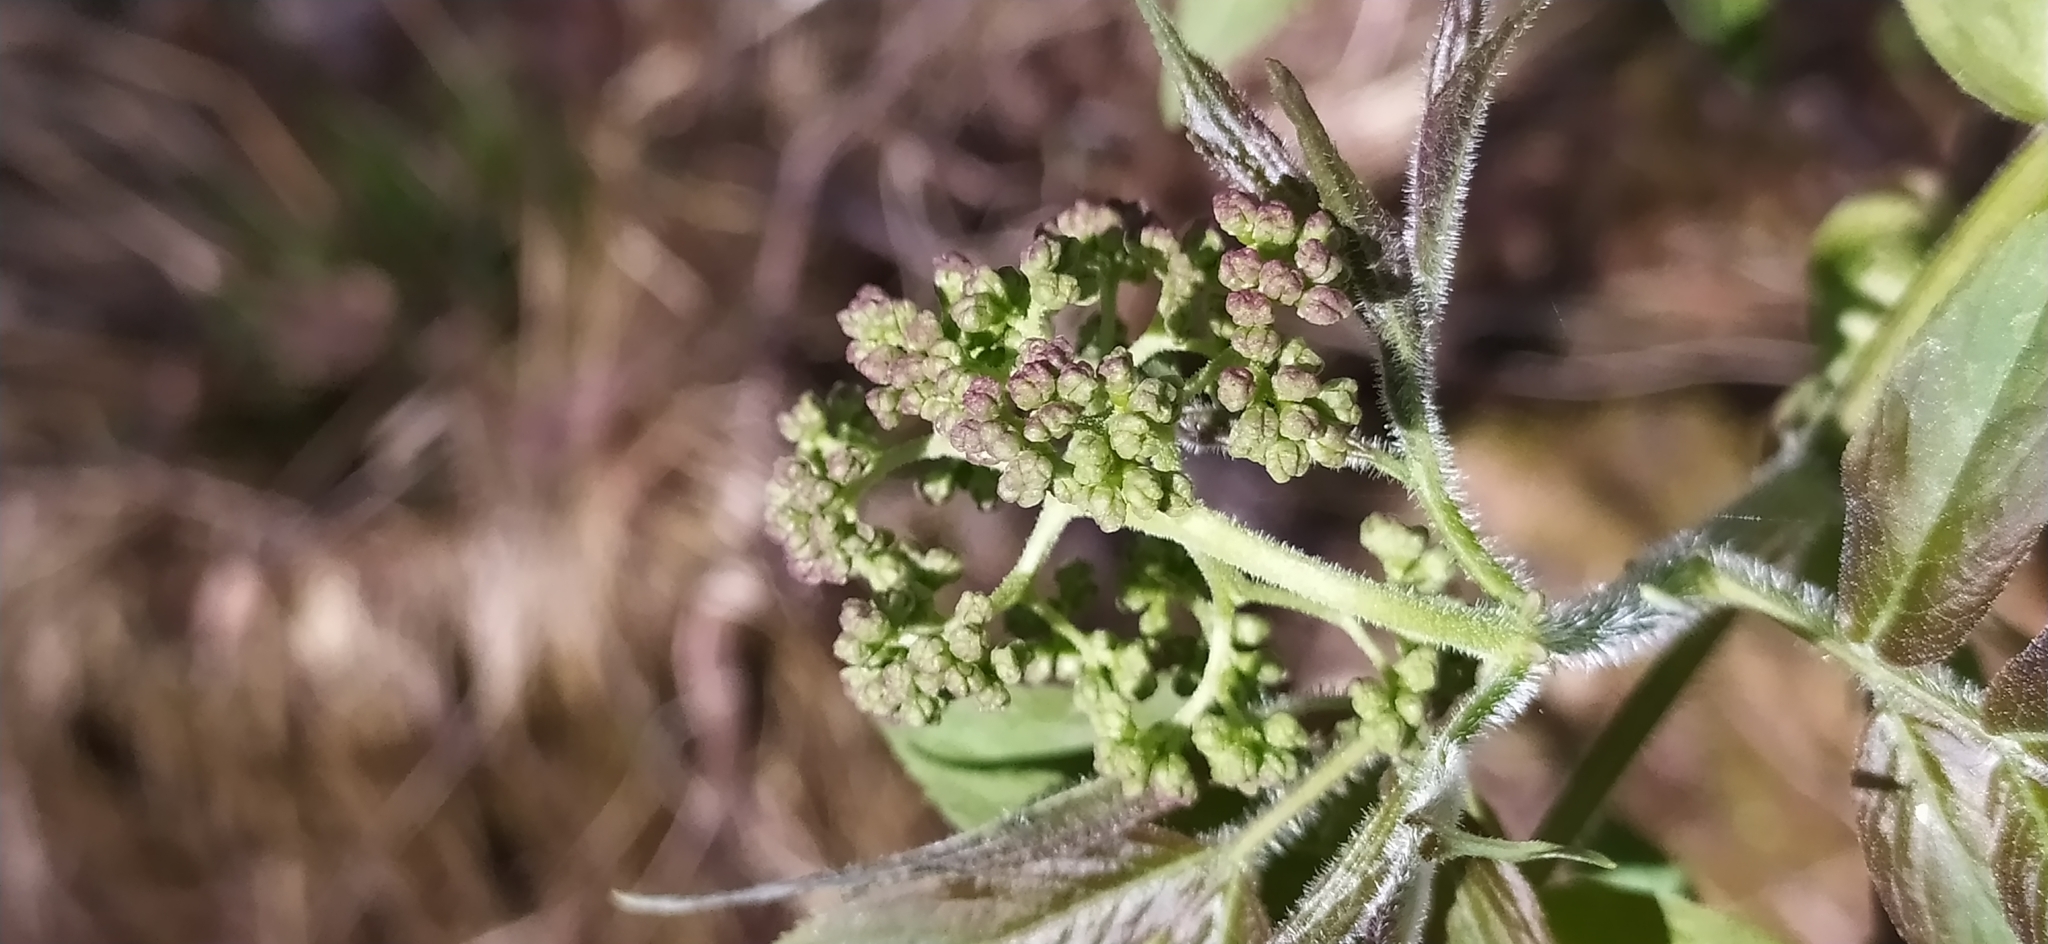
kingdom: Plantae
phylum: Tracheophyta
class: Magnoliopsida
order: Dipsacales
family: Viburnaceae
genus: Sambucus
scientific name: Sambucus sibirica
